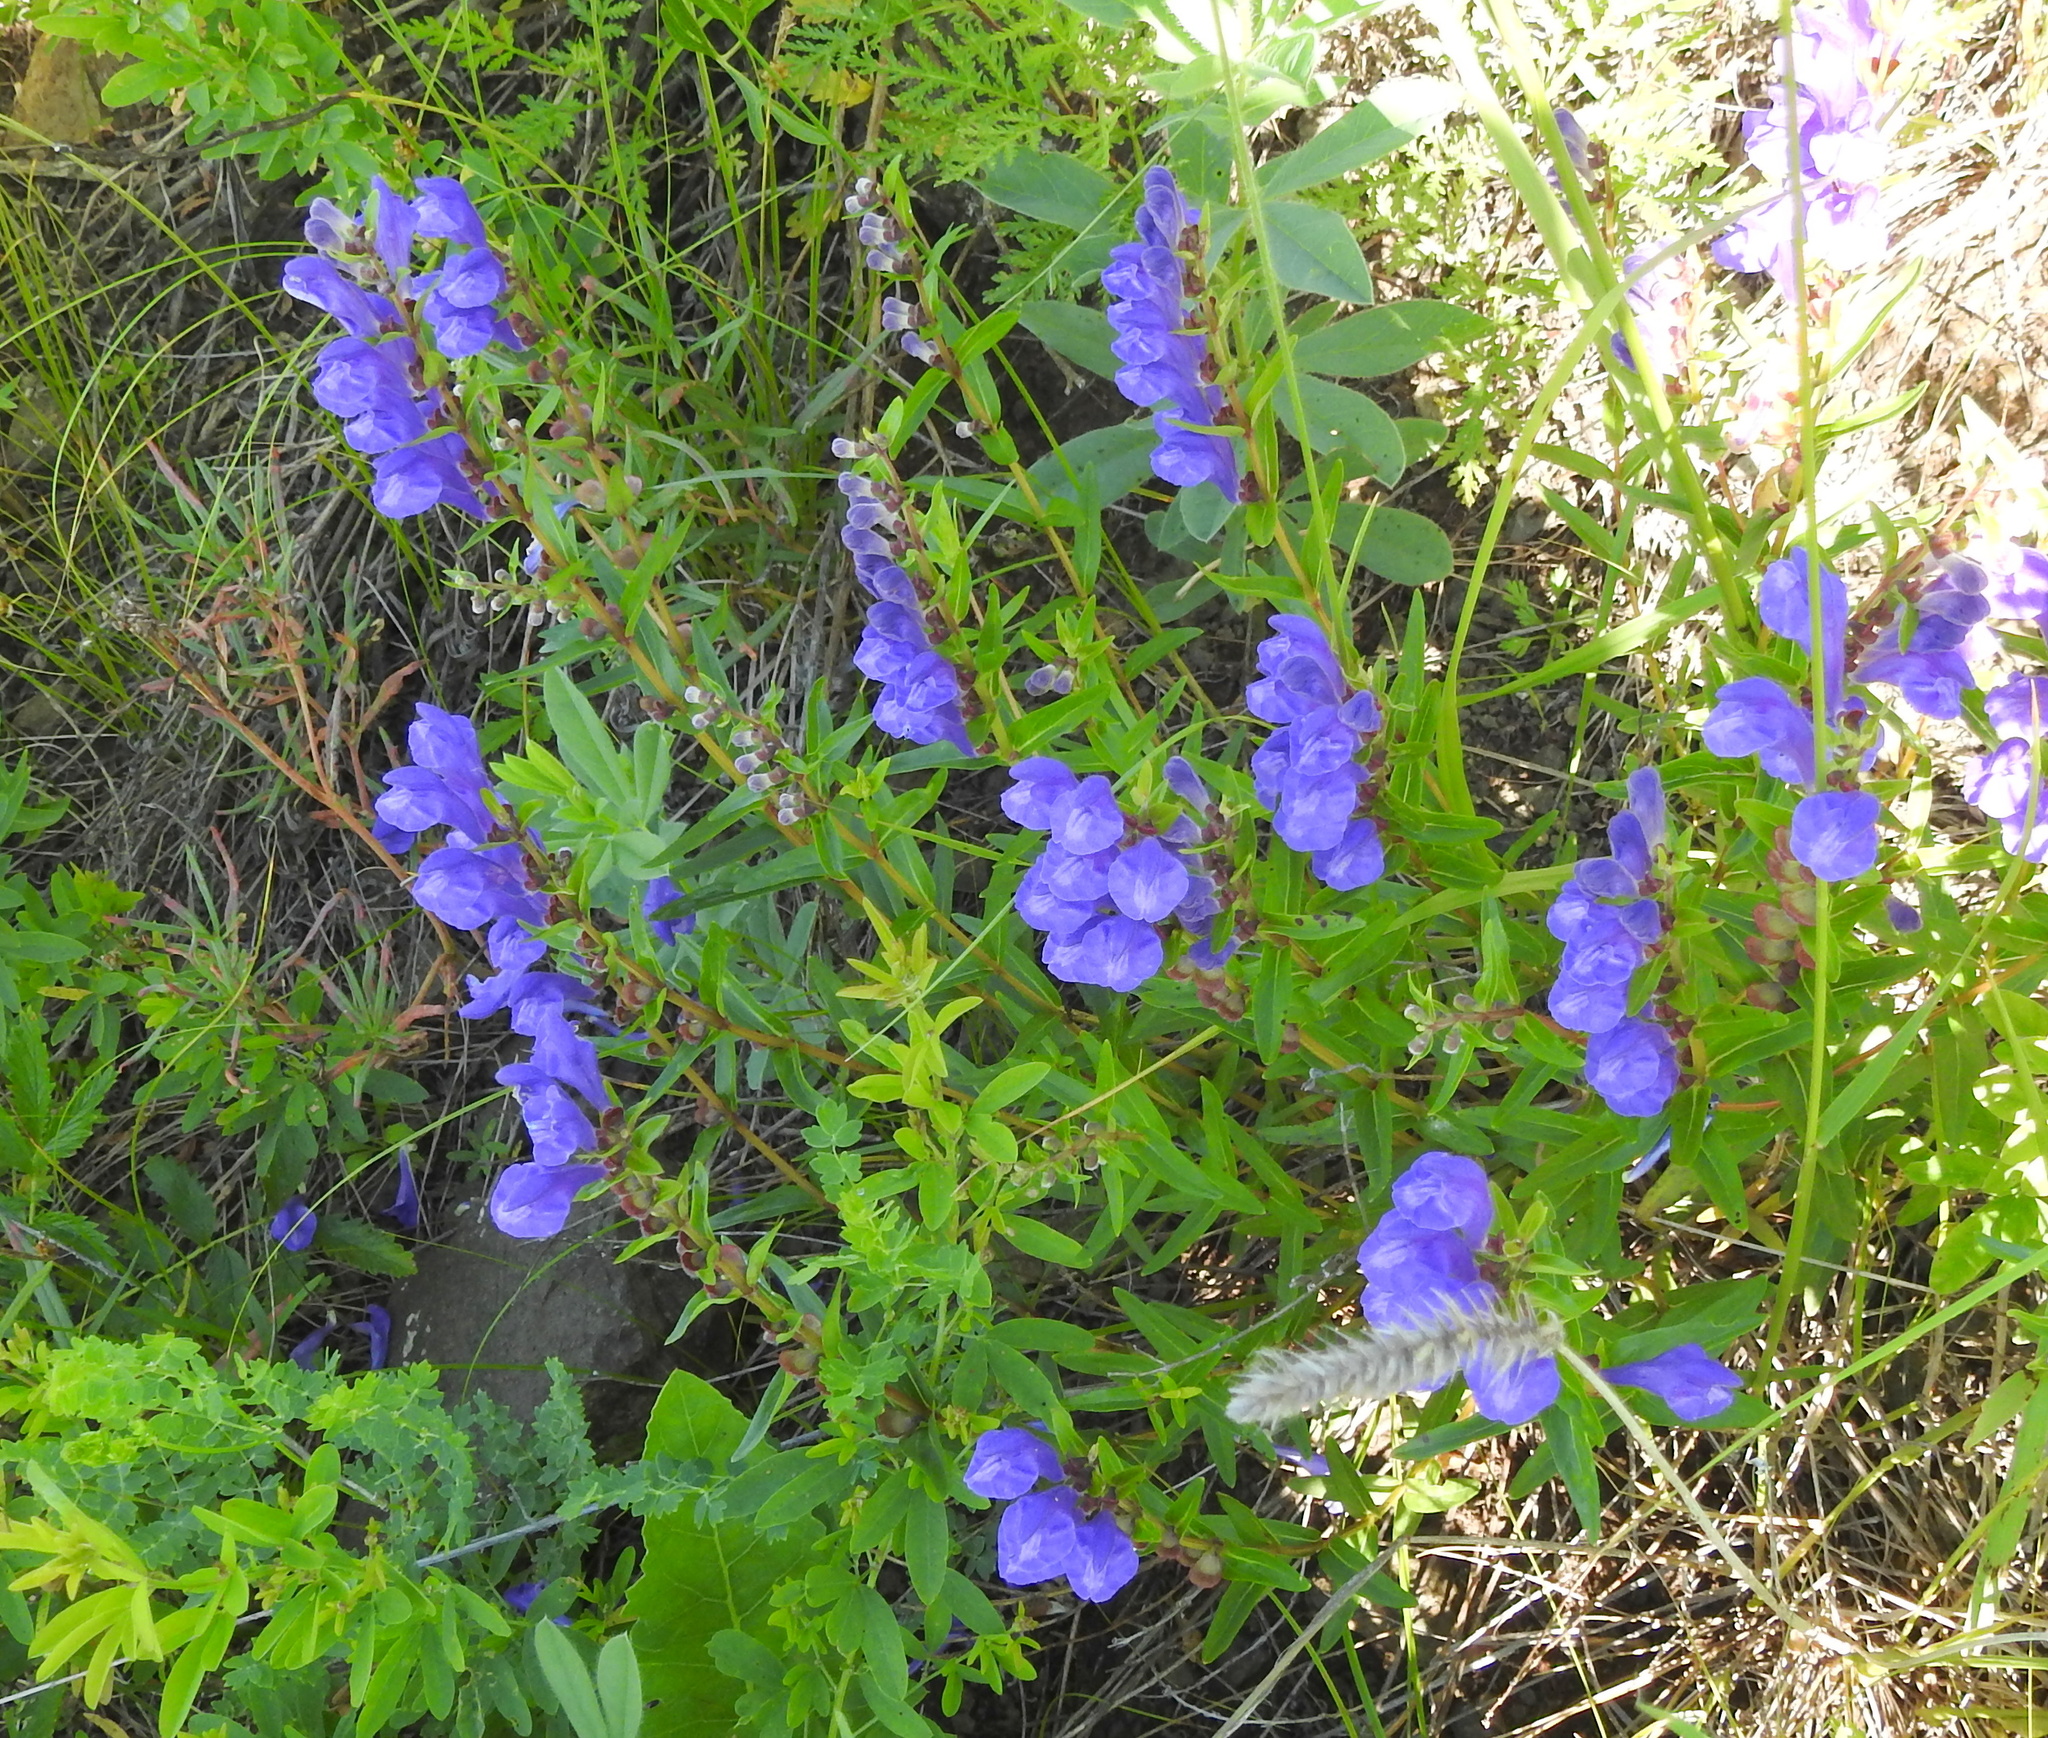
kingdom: Plantae
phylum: Tracheophyta
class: Magnoliopsida
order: Lamiales
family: Lamiaceae
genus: Scutellaria
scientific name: Scutellaria baicalensis
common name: Baikal skullcap
